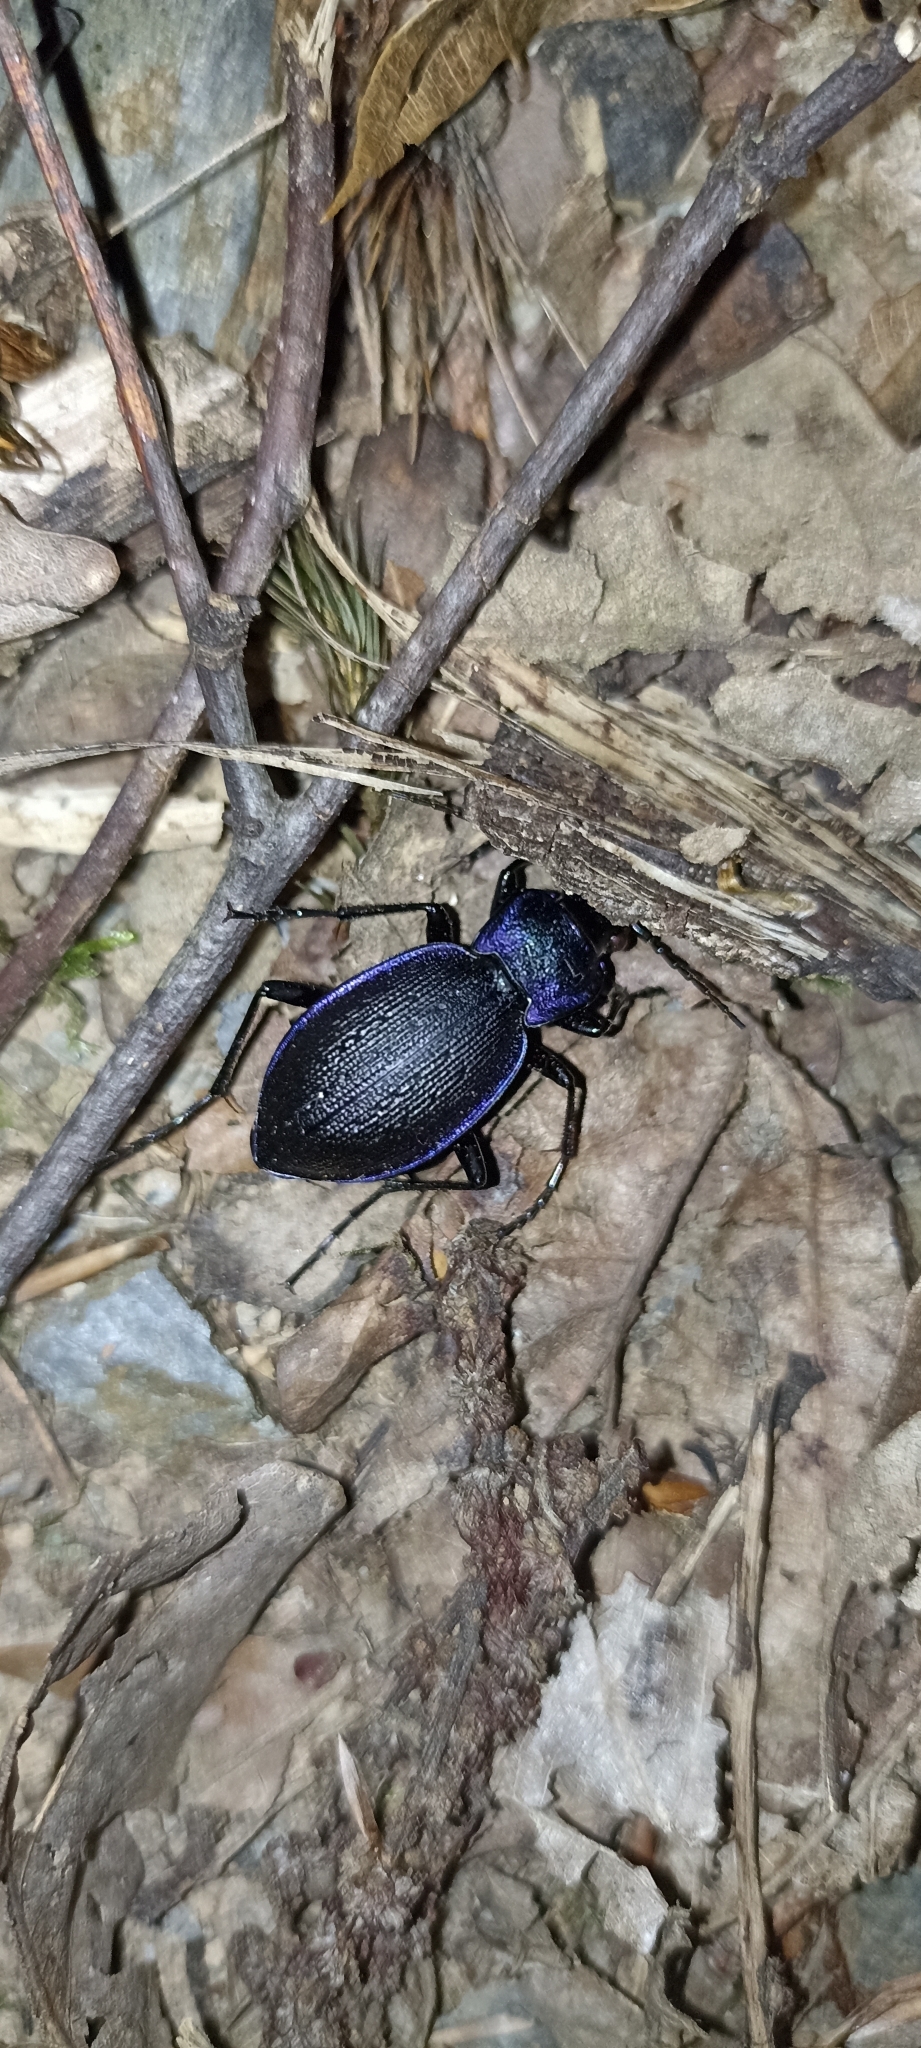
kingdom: Animalia
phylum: Arthropoda
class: Insecta
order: Coleoptera
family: Carabidae
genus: Carabus
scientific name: Carabus problematicus
